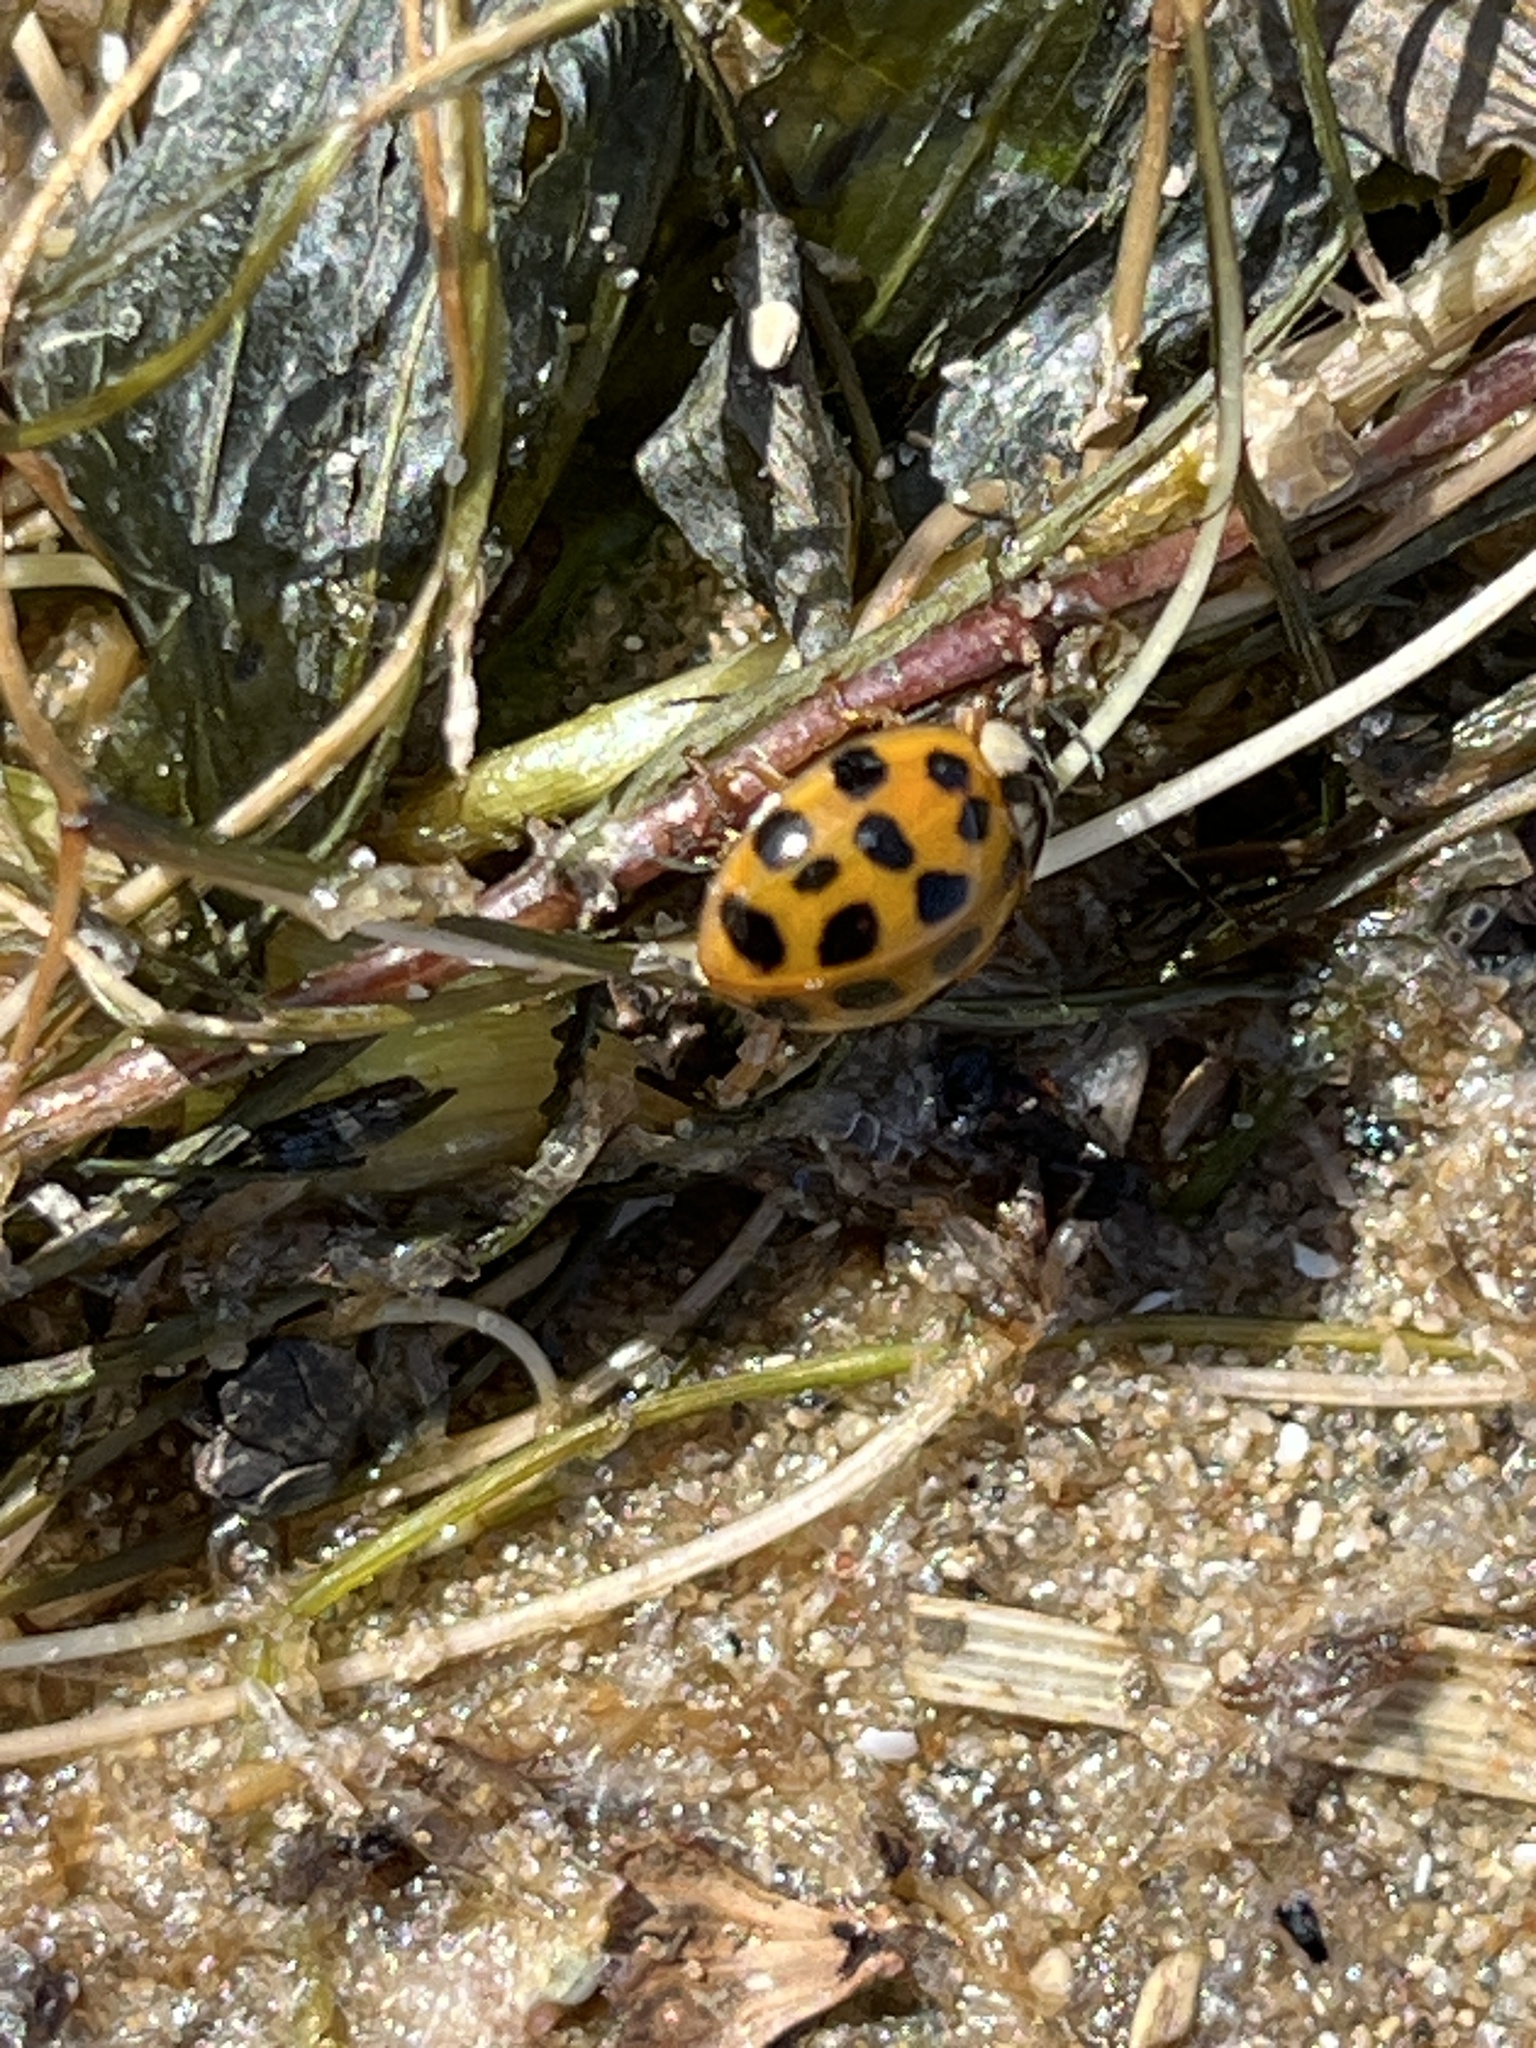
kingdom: Animalia
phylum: Arthropoda
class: Insecta
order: Coleoptera
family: Coccinellidae
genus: Harmonia
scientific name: Harmonia axyridis
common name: Harlequin ladybird
